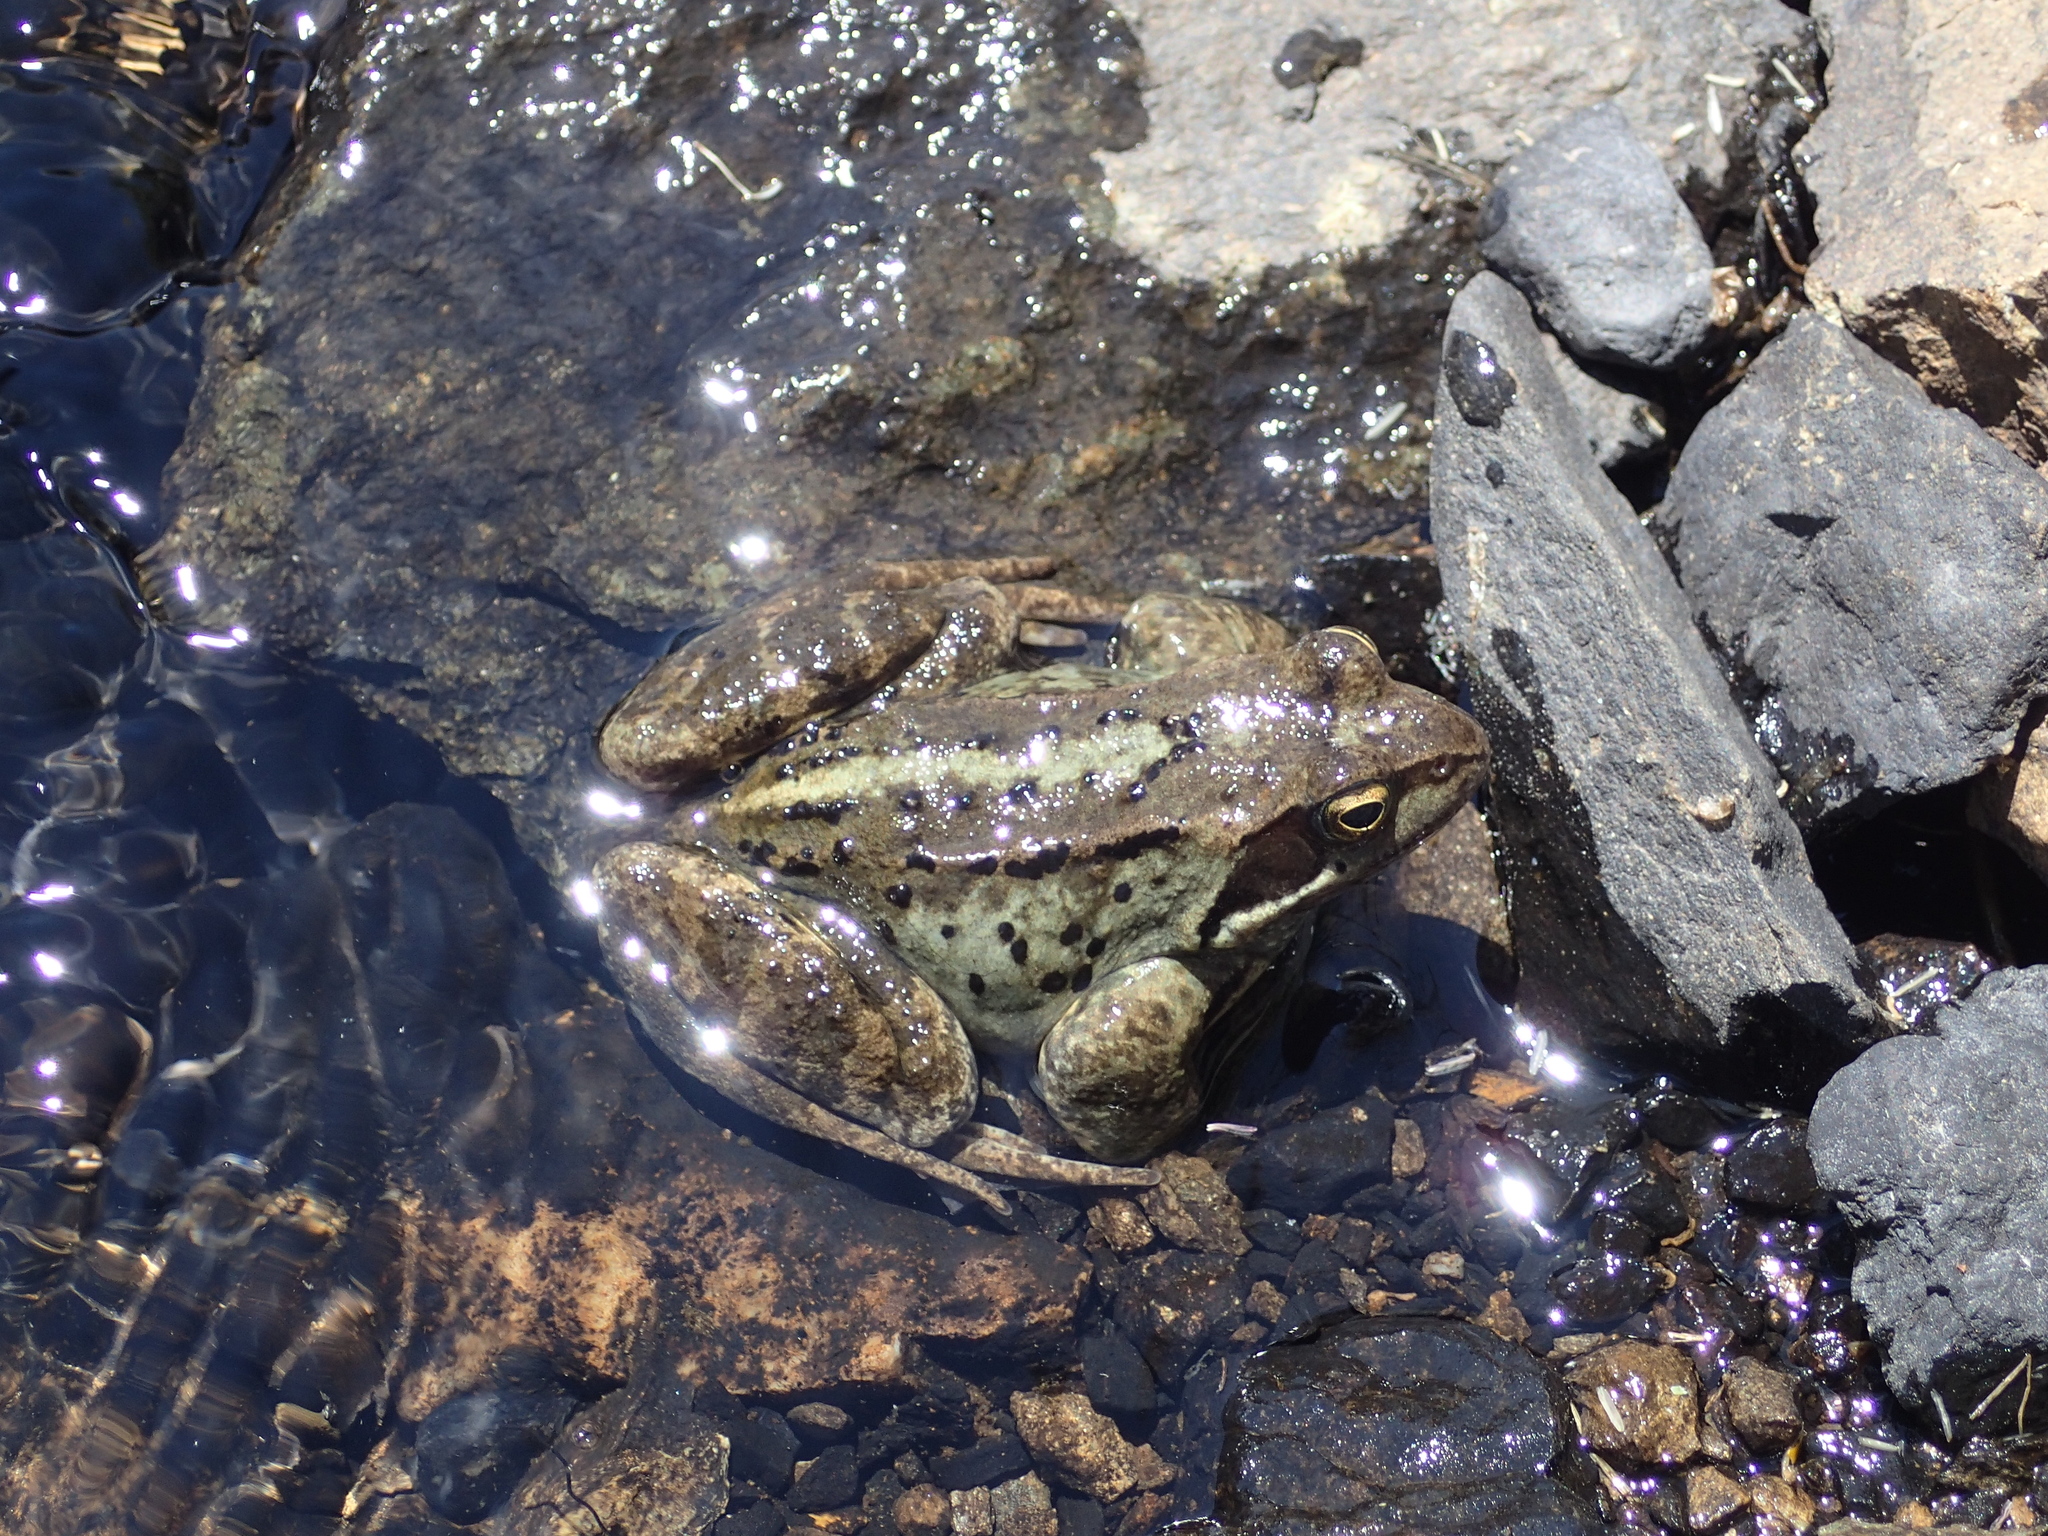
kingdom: Animalia
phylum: Chordata
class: Amphibia
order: Anura
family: Ranidae
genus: Rana
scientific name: Rana temporaria
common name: Common frog
